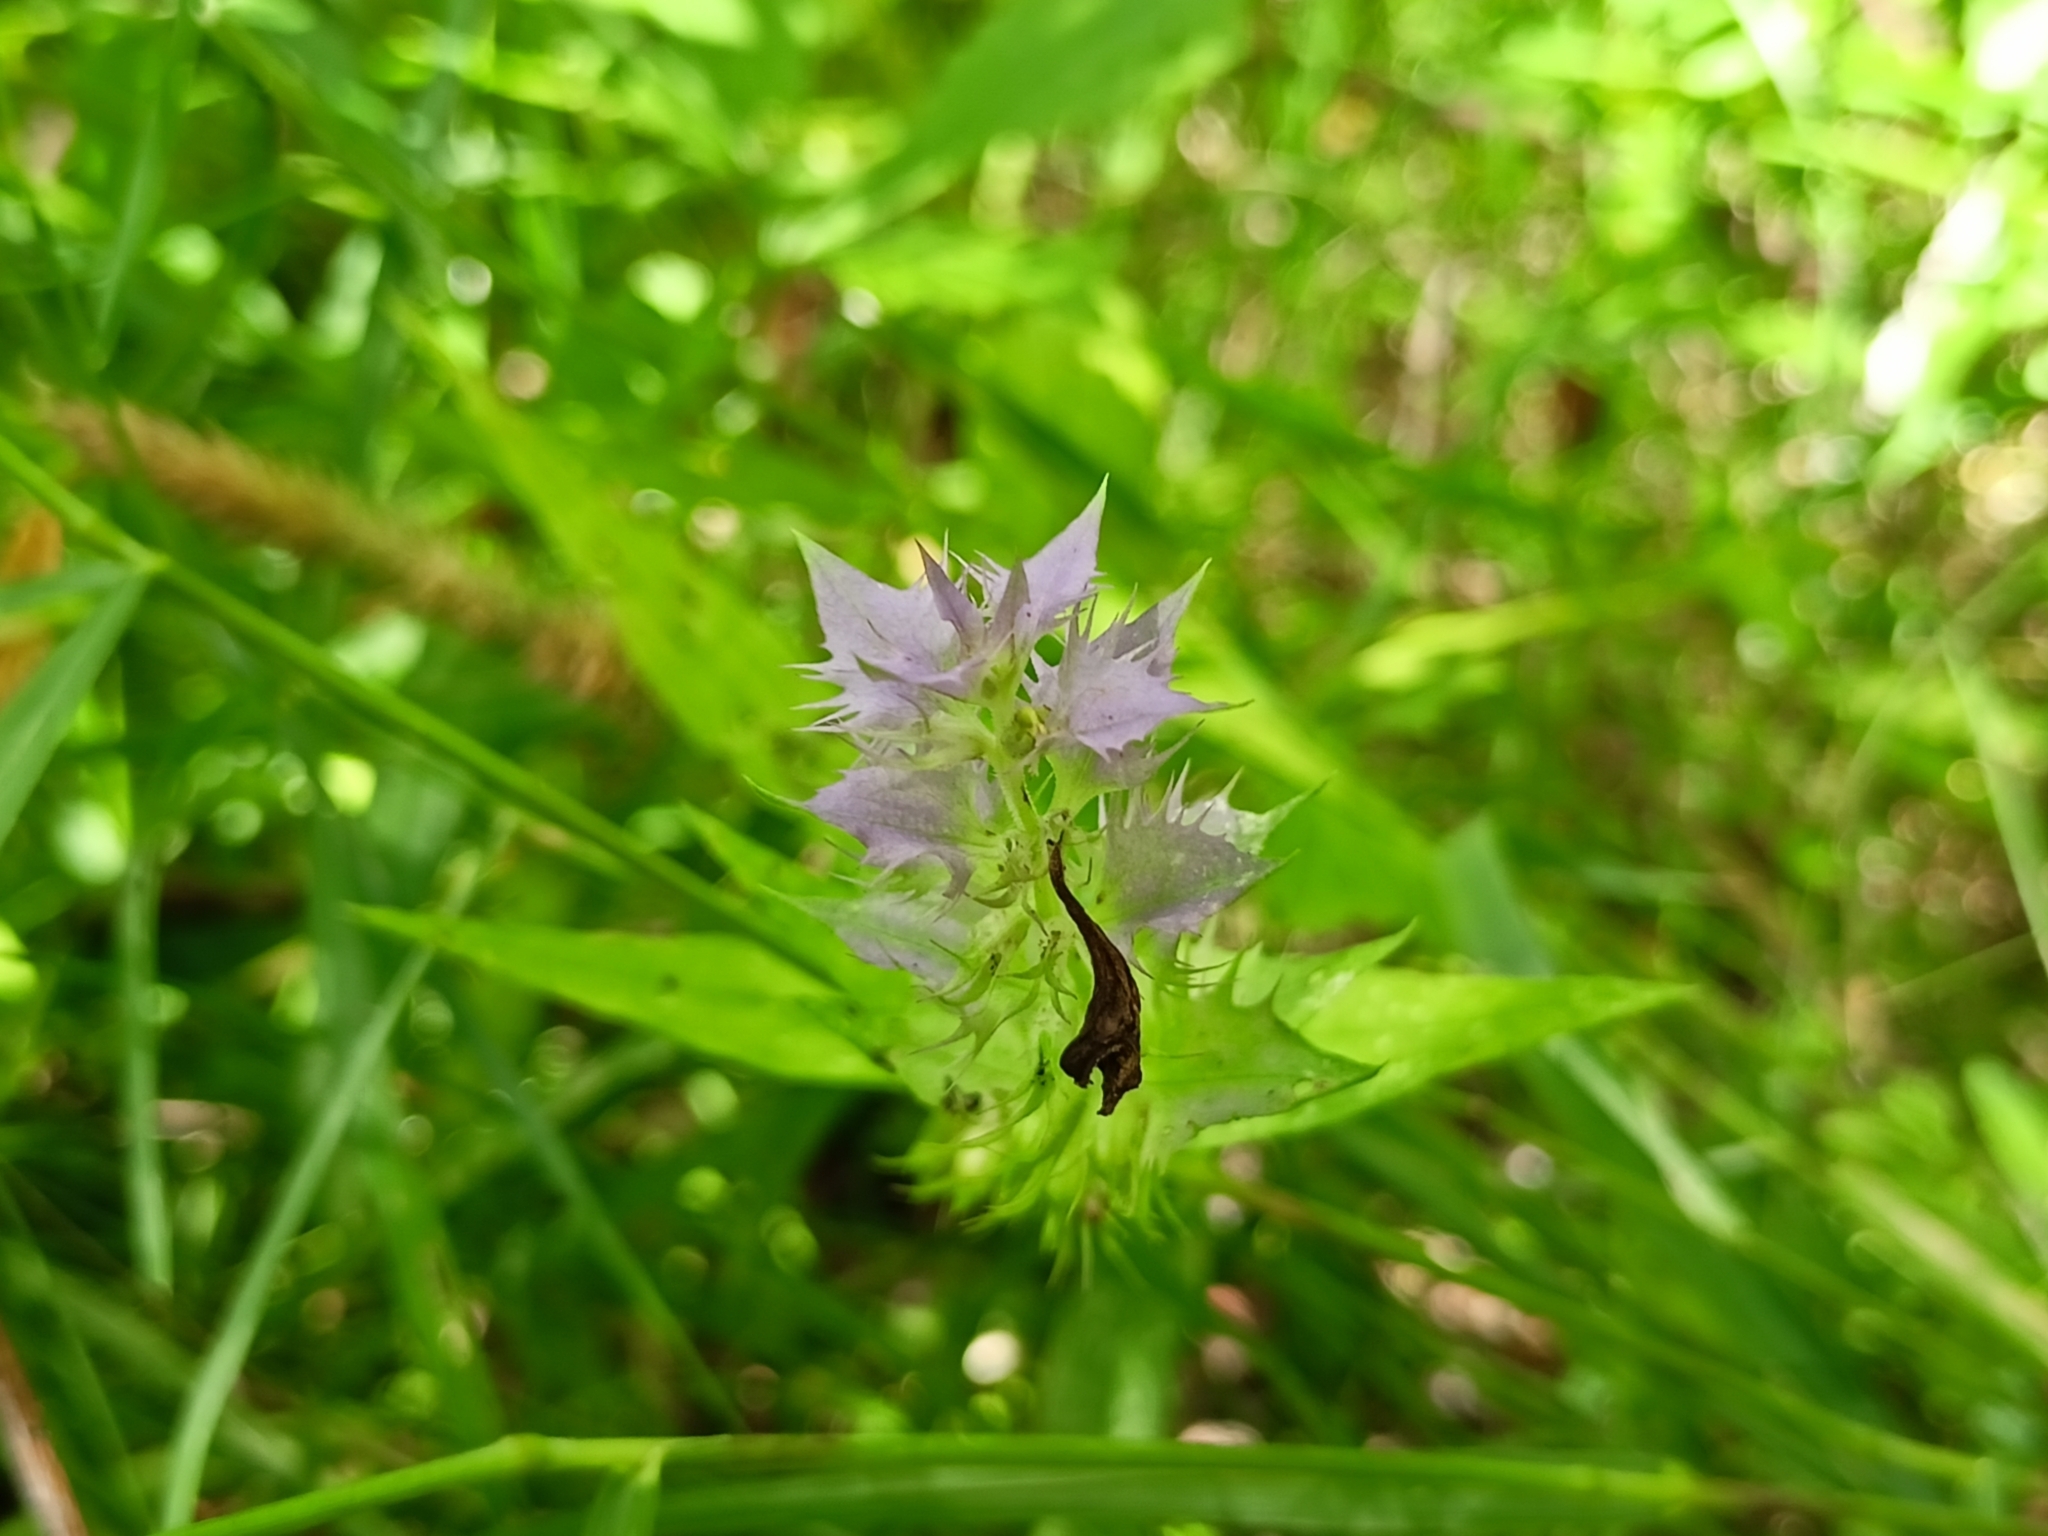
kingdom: Plantae
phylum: Tracheophyta
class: Magnoliopsida
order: Lamiales
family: Orobanchaceae
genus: Melampyrum
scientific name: Melampyrum nemorosum
